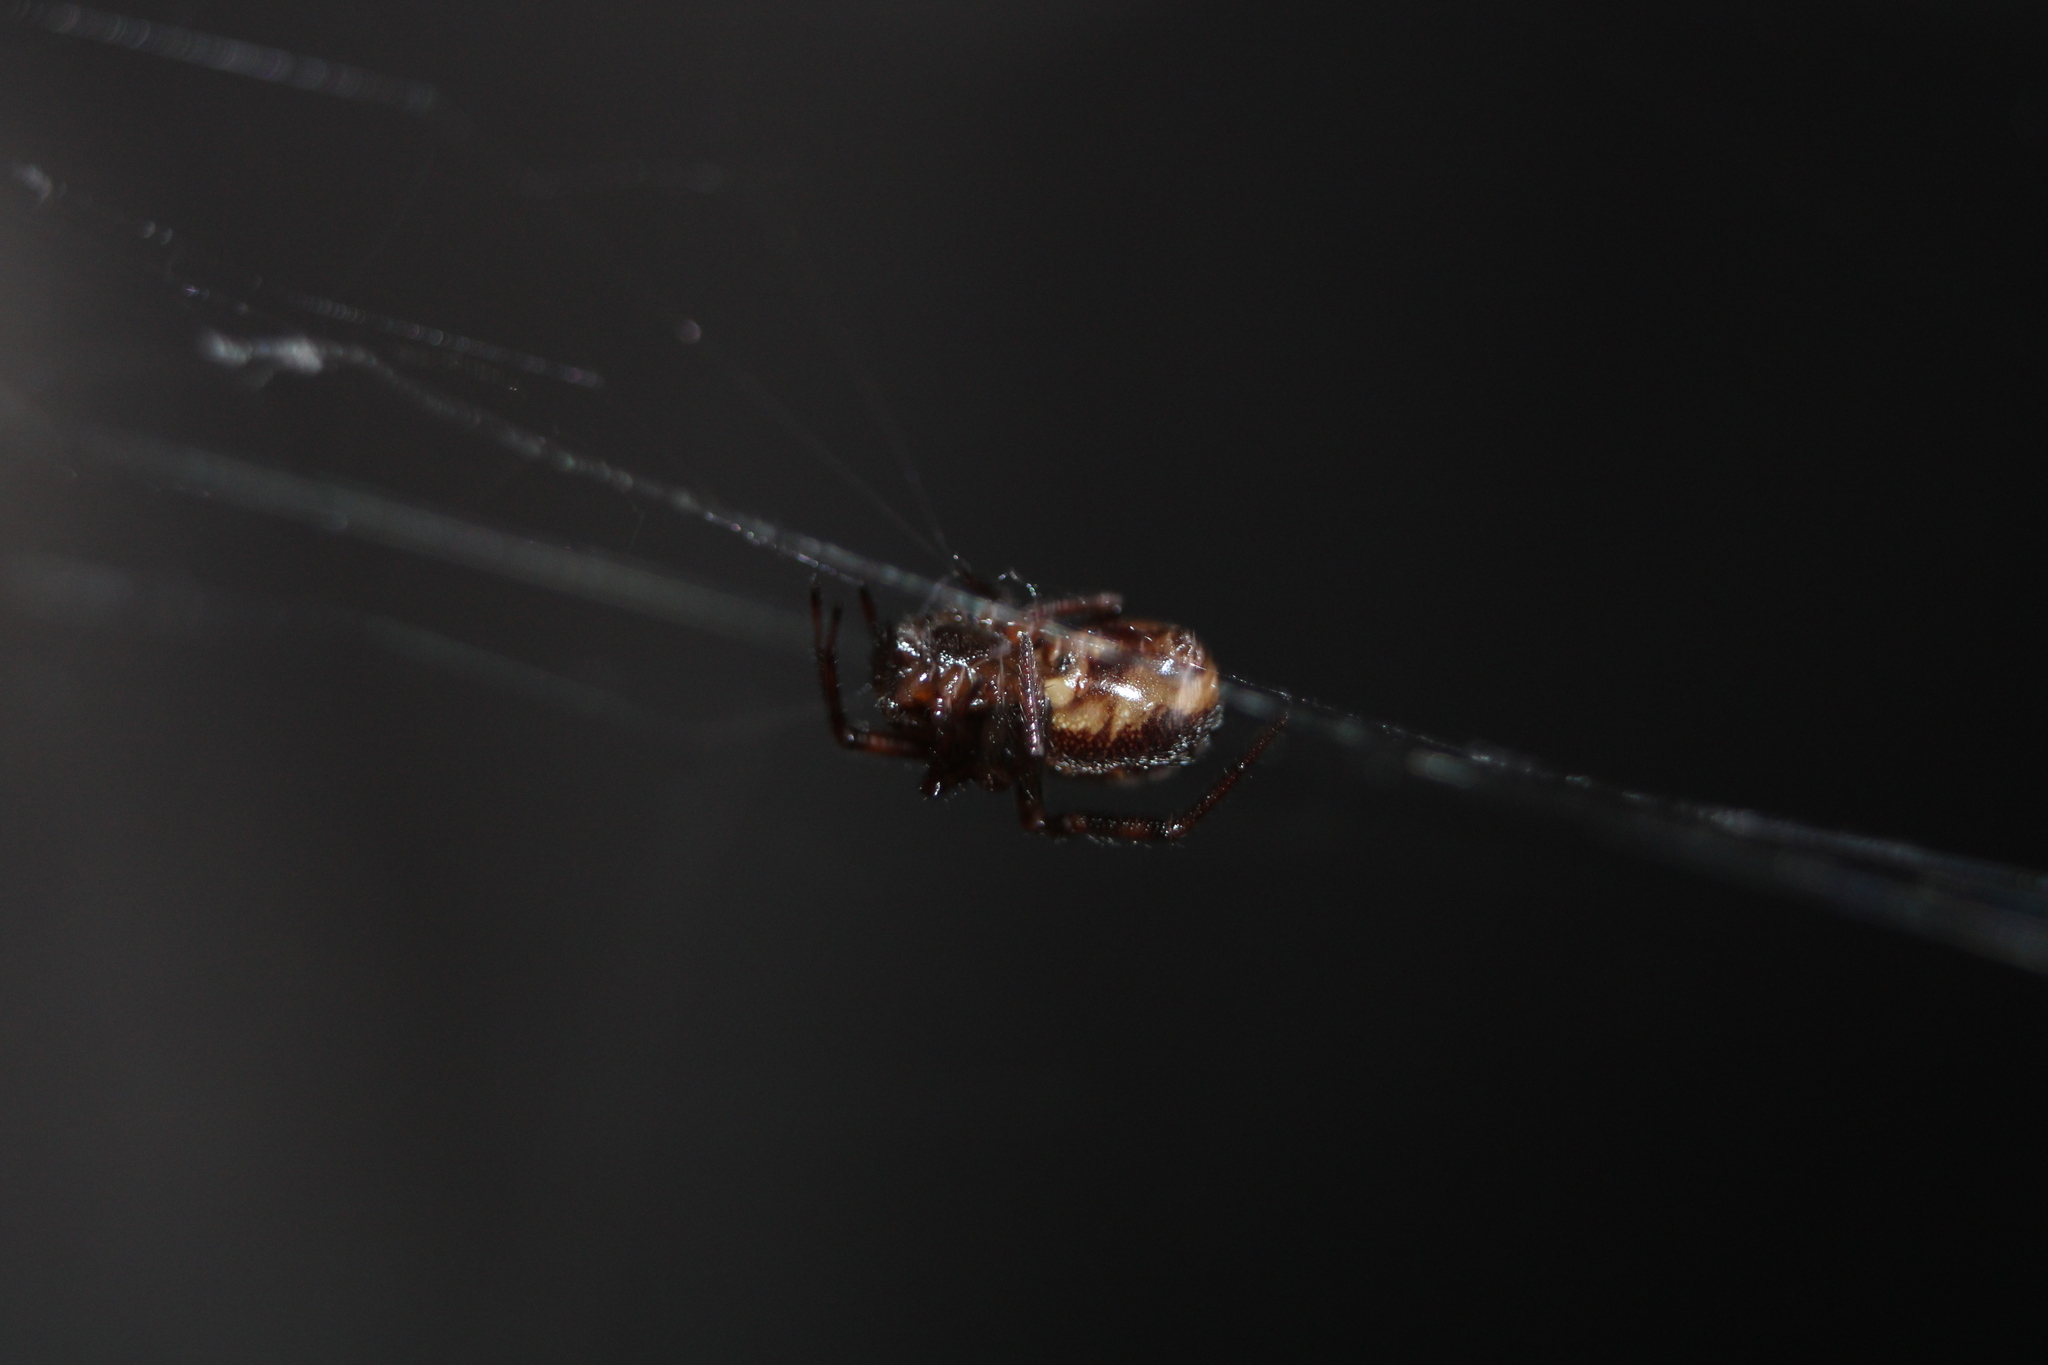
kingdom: Animalia
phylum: Arthropoda
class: Arachnida
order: Araneae
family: Theridiidae
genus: Steatoda
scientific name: Steatoda borealis
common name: Boreal combfoot
